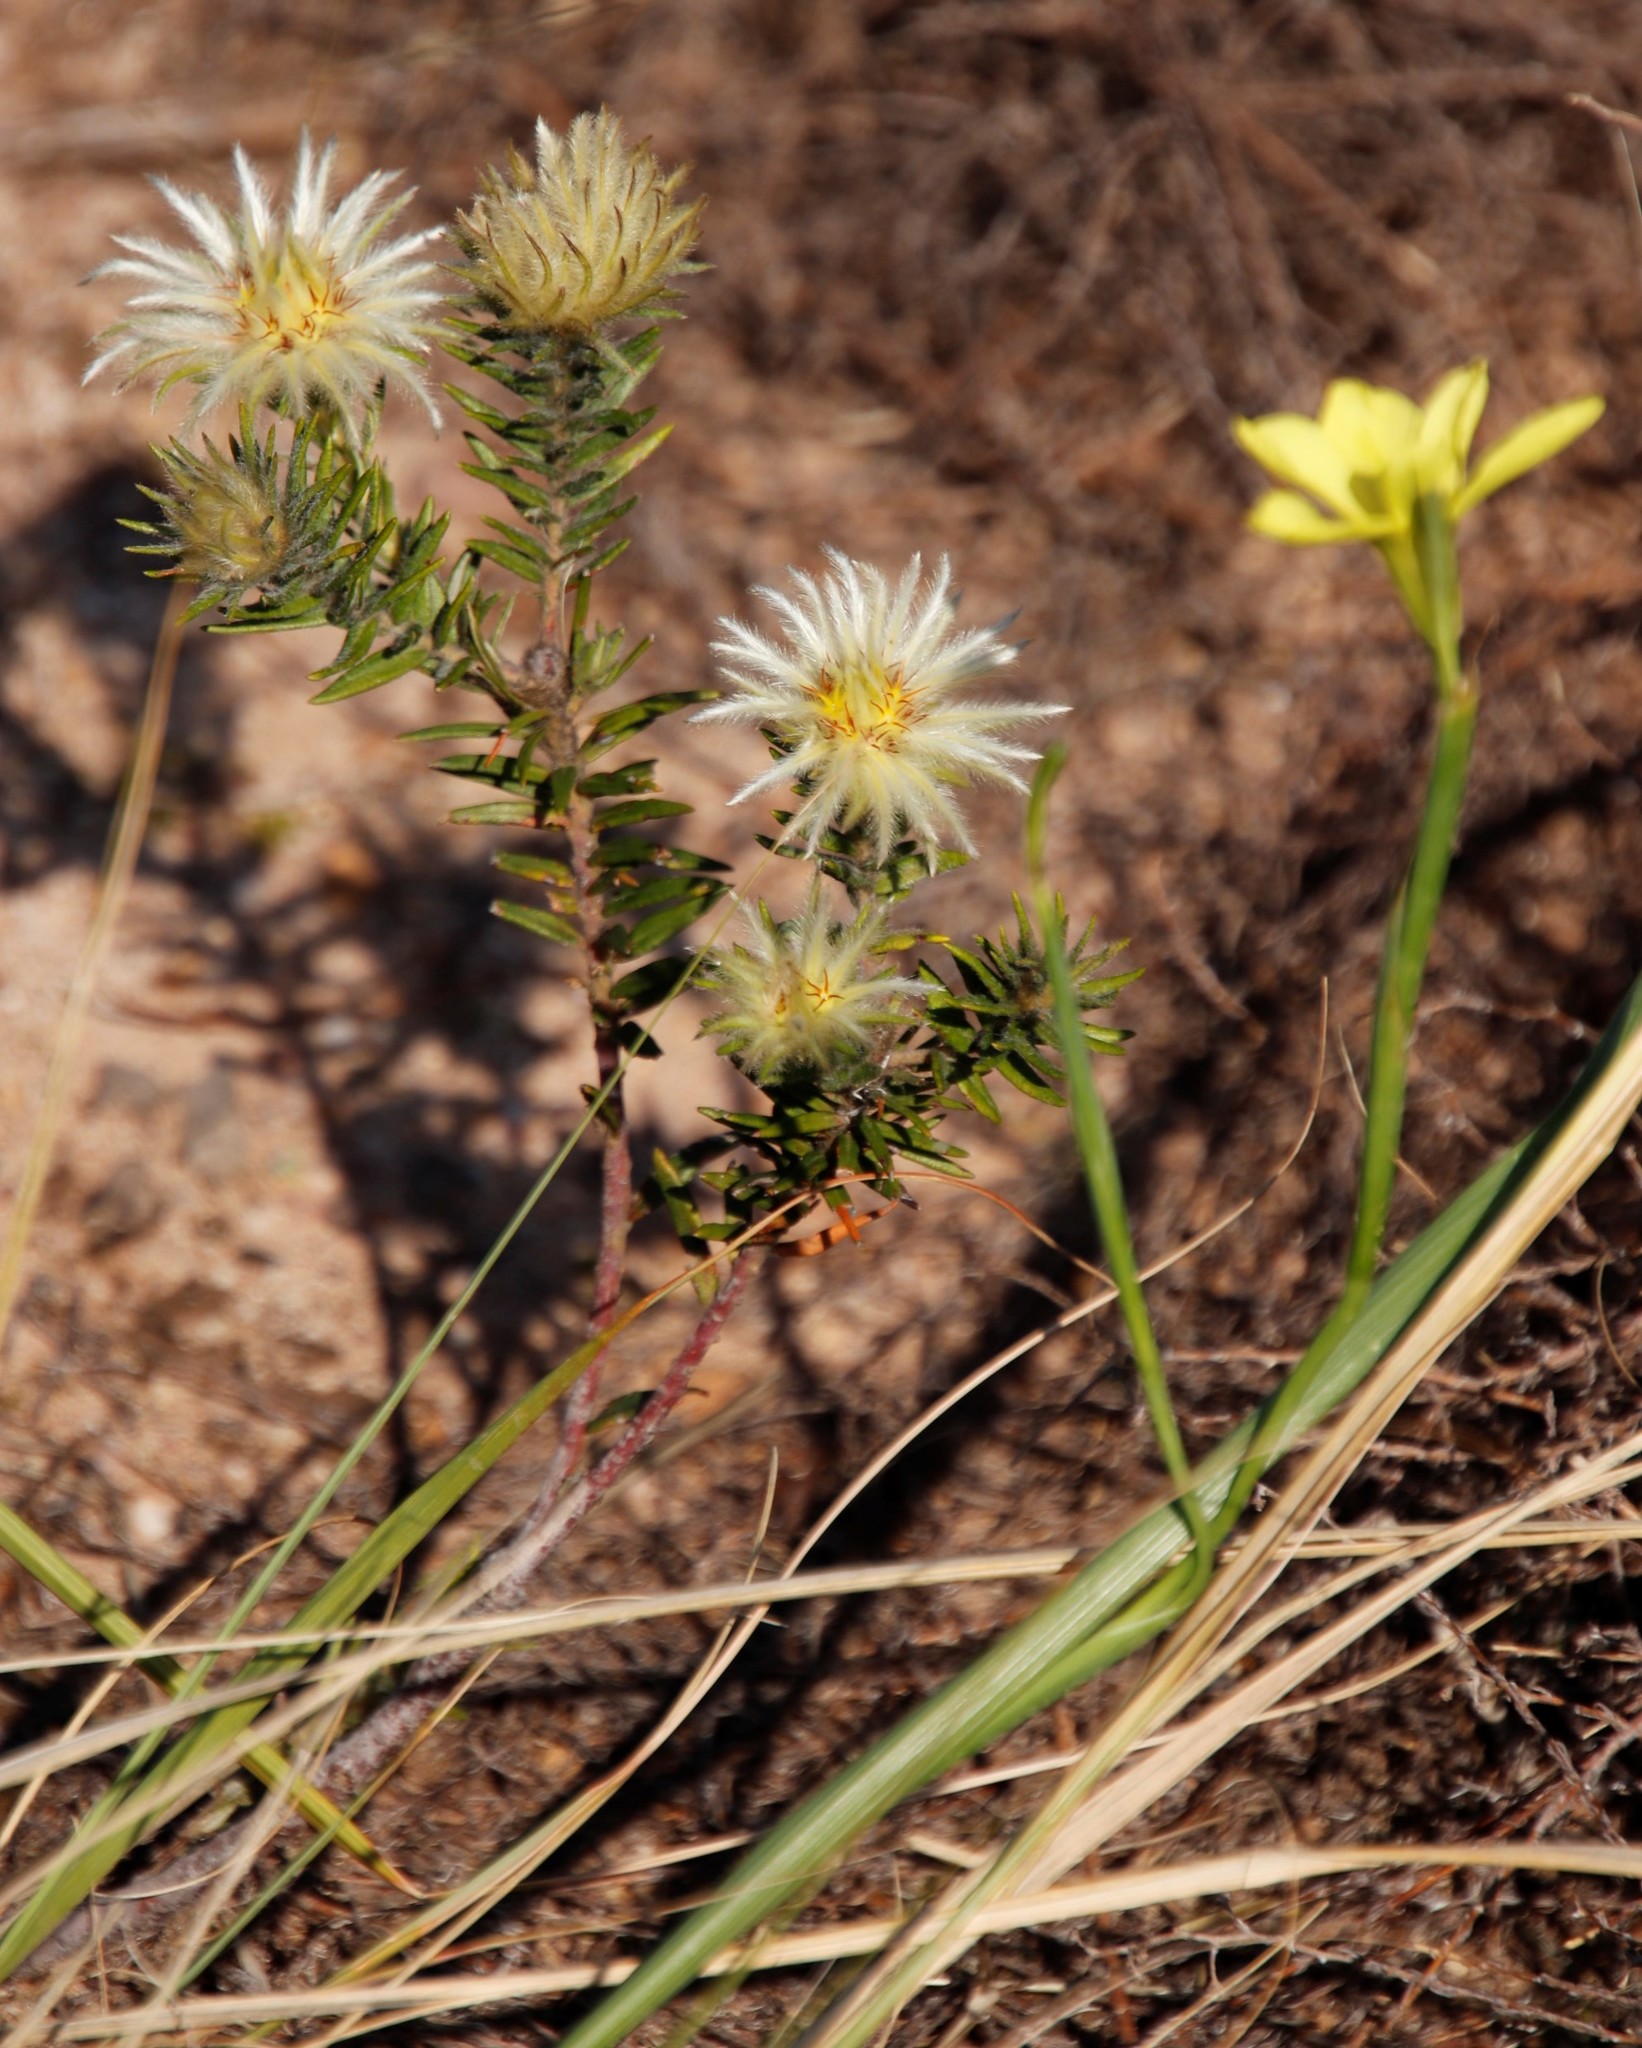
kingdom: Plantae
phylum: Tracheophyta
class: Magnoliopsida
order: Rosales
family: Rhamnaceae
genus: Phylica
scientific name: Phylica pubescens
